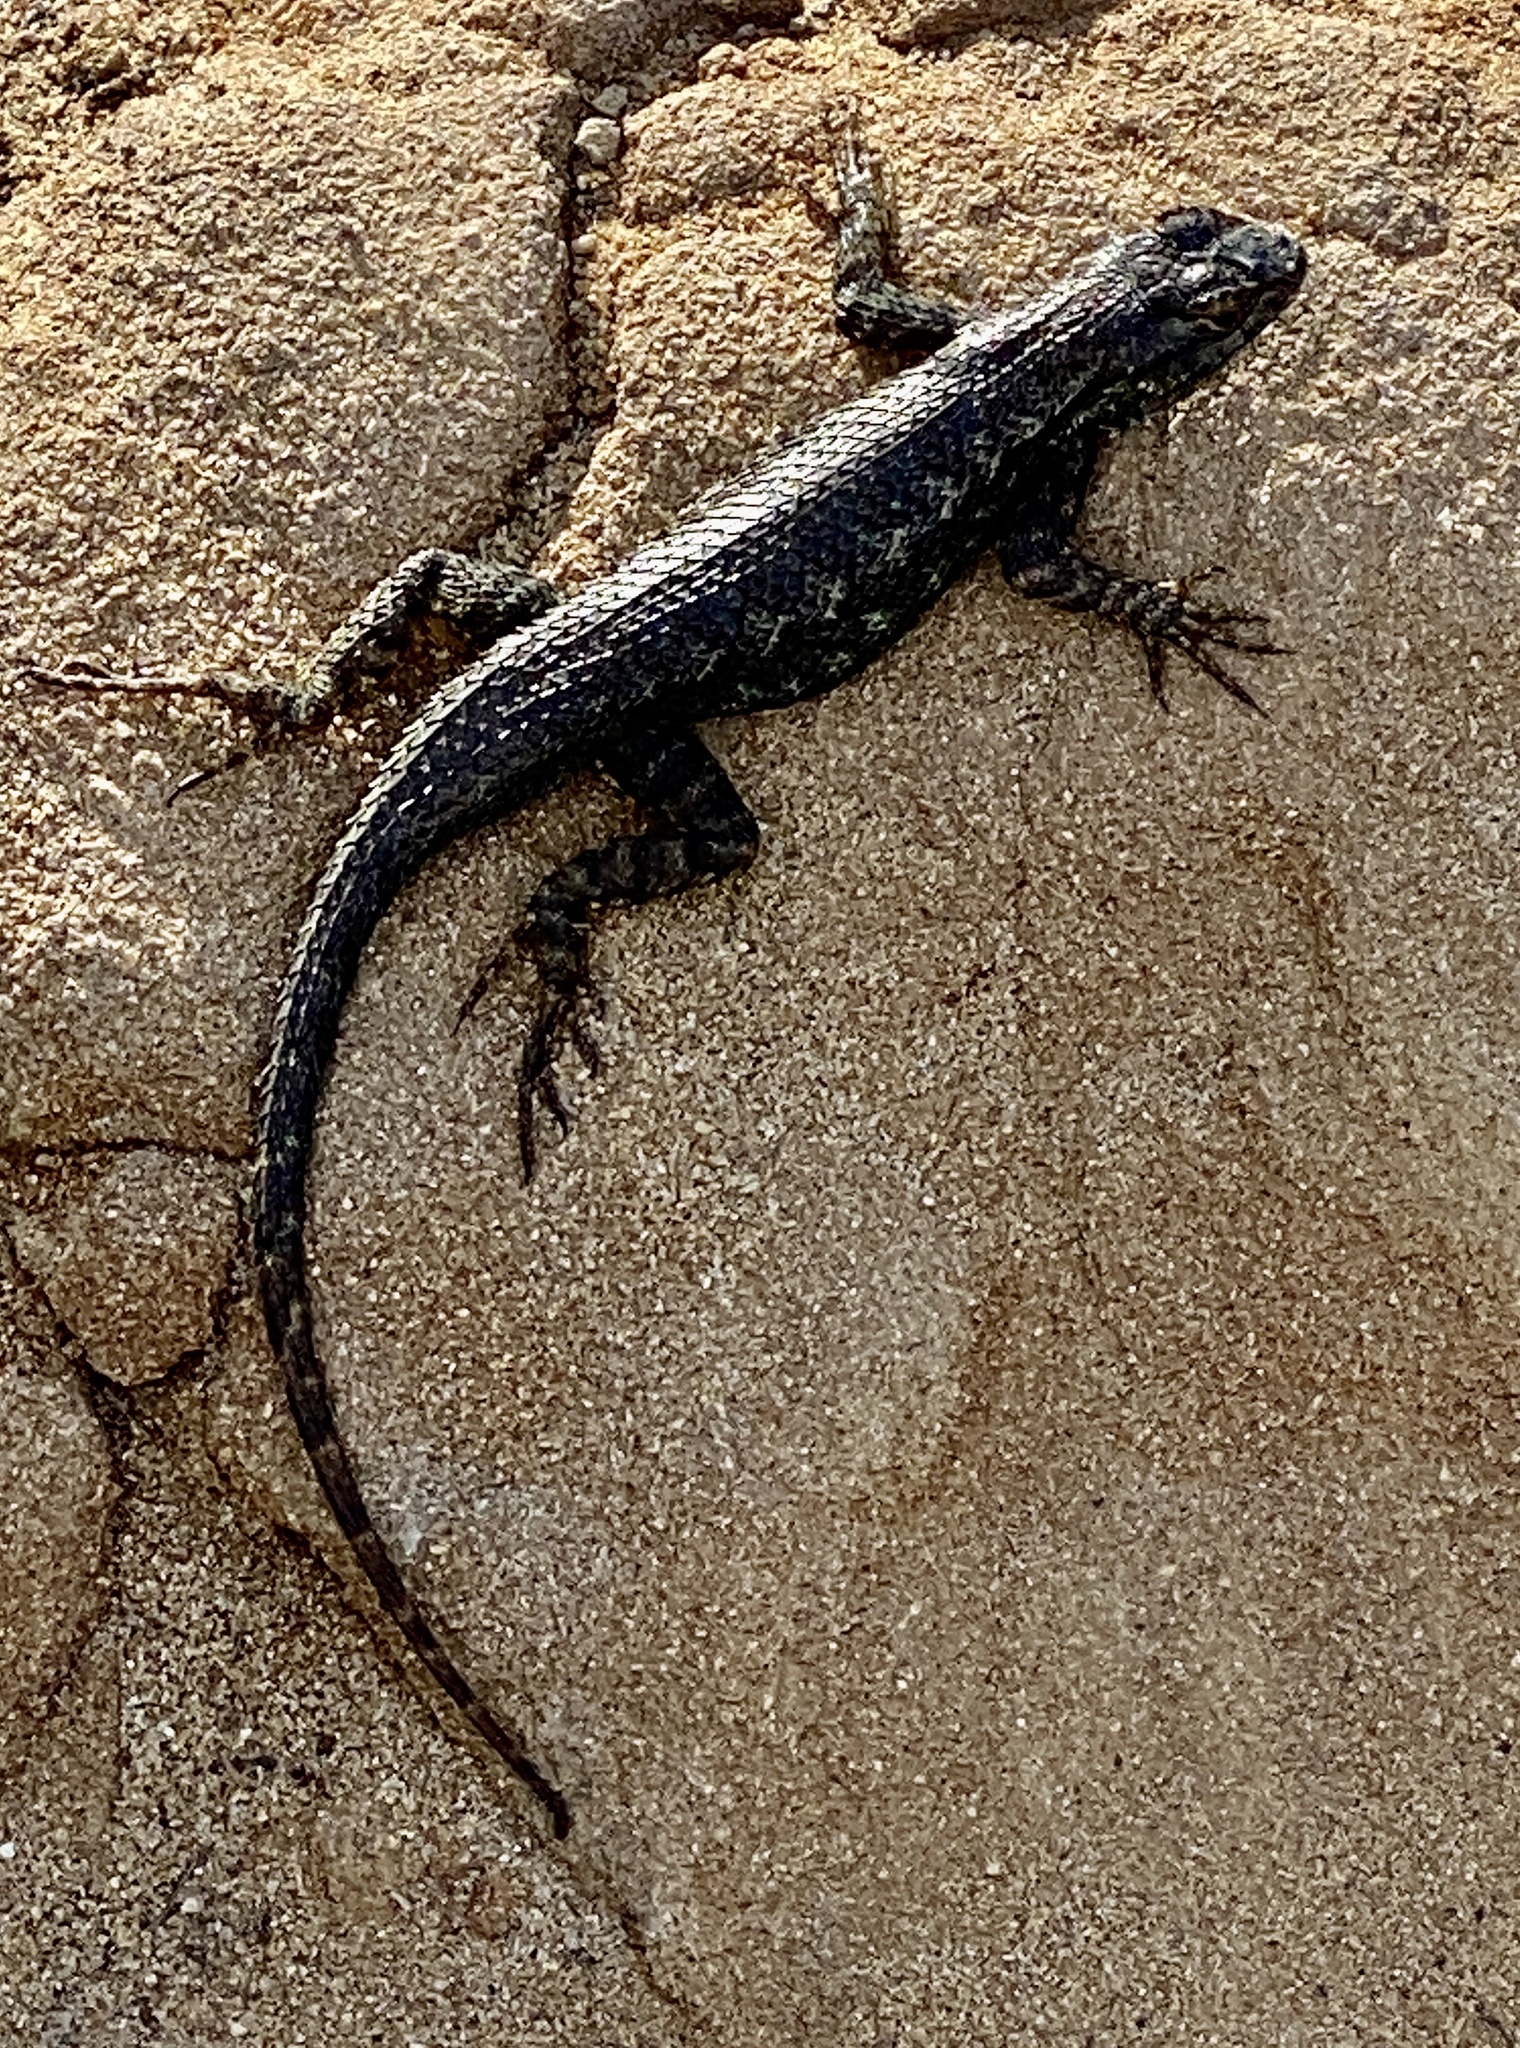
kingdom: Animalia
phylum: Chordata
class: Squamata
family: Phrynosomatidae
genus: Sceloporus
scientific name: Sceloporus occidentalis
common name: Western fence lizard
